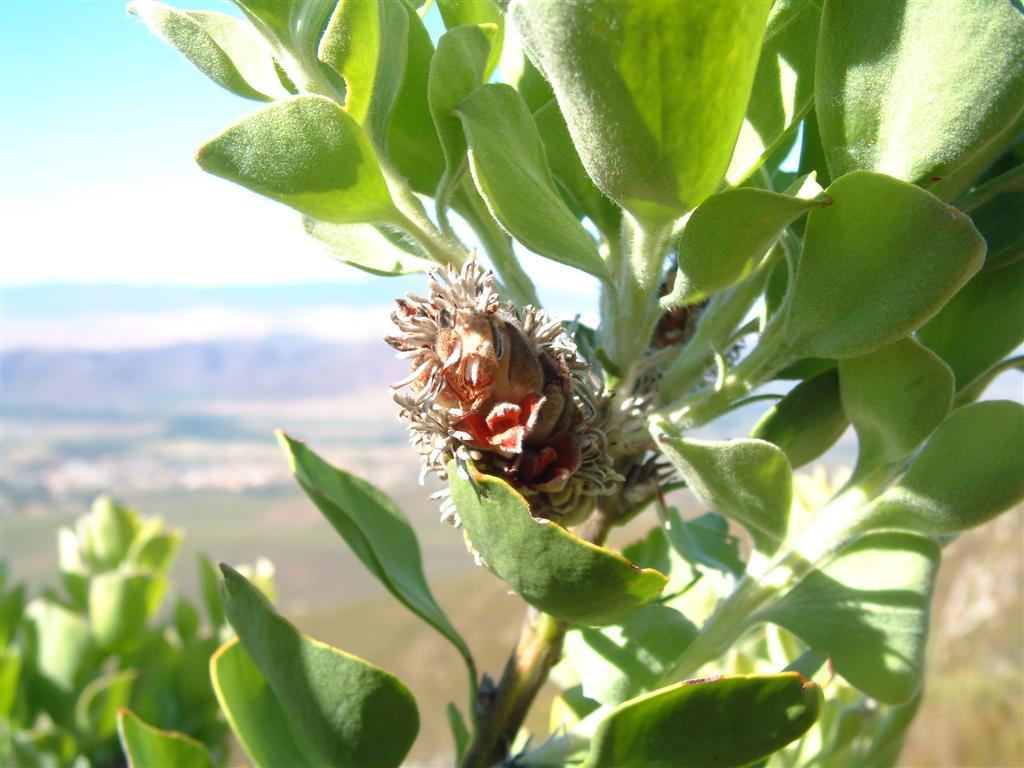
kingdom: Plantae
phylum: Tracheophyta
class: Magnoliopsida
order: Proteales
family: Proteaceae
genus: Paranomus
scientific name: Paranomus sceptrum-gustavianus
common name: King gustav's sceptre
